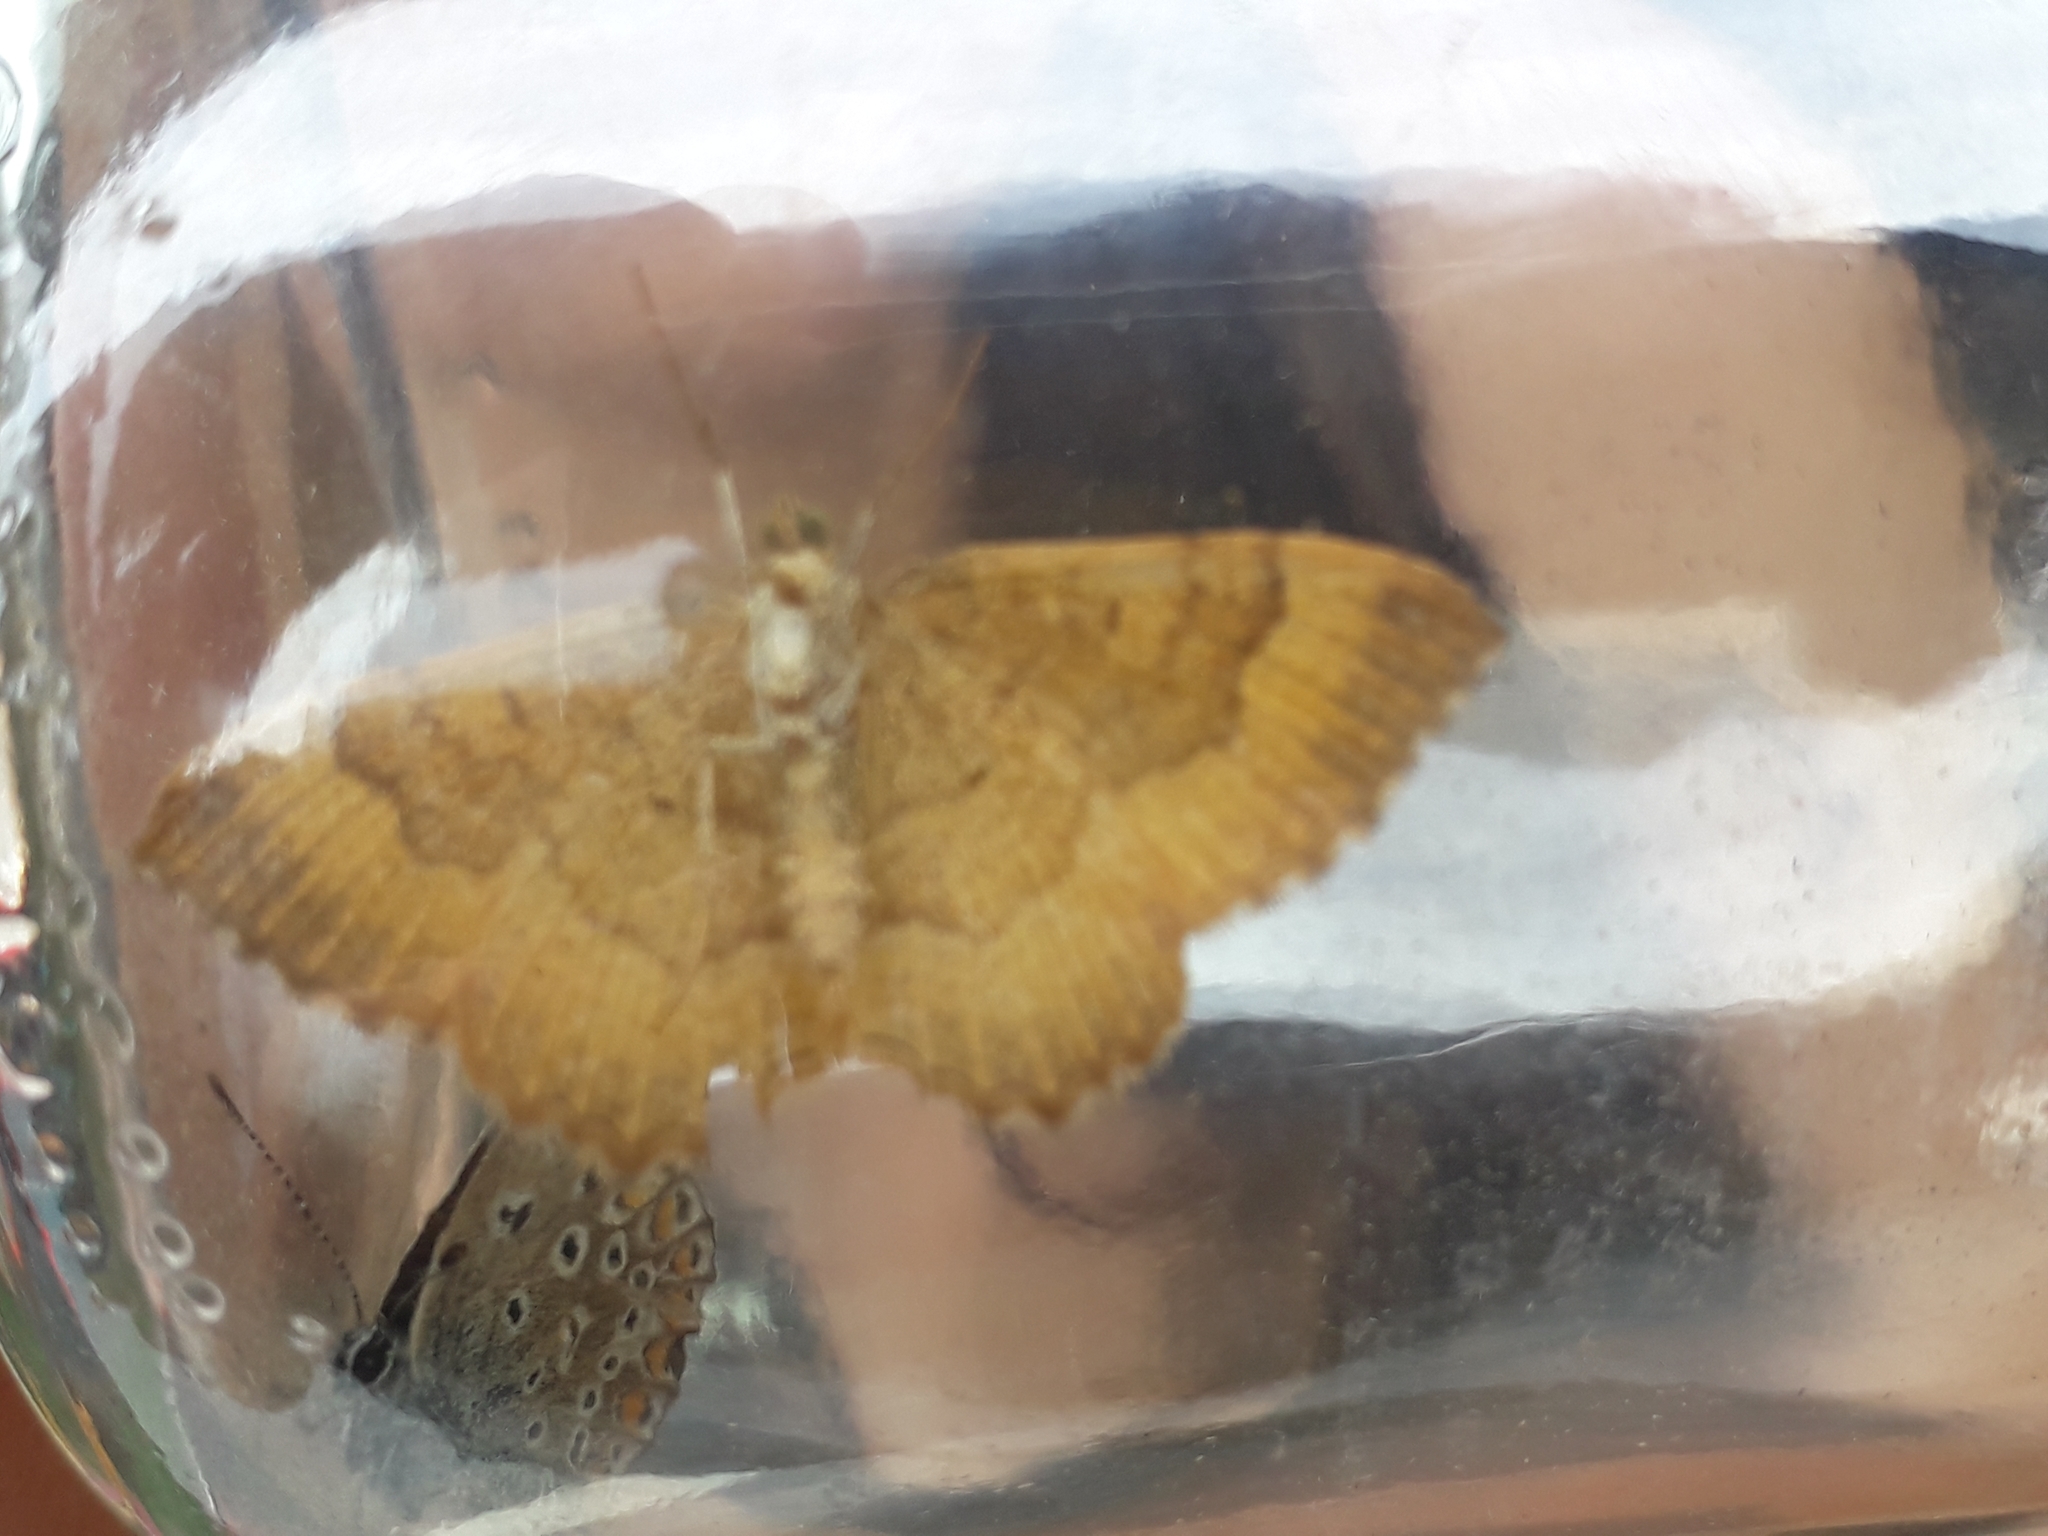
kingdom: Animalia
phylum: Arthropoda
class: Insecta
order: Lepidoptera
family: Geometridae
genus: Camptogramma
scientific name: Camptogramma bilineata
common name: Yellow shell
